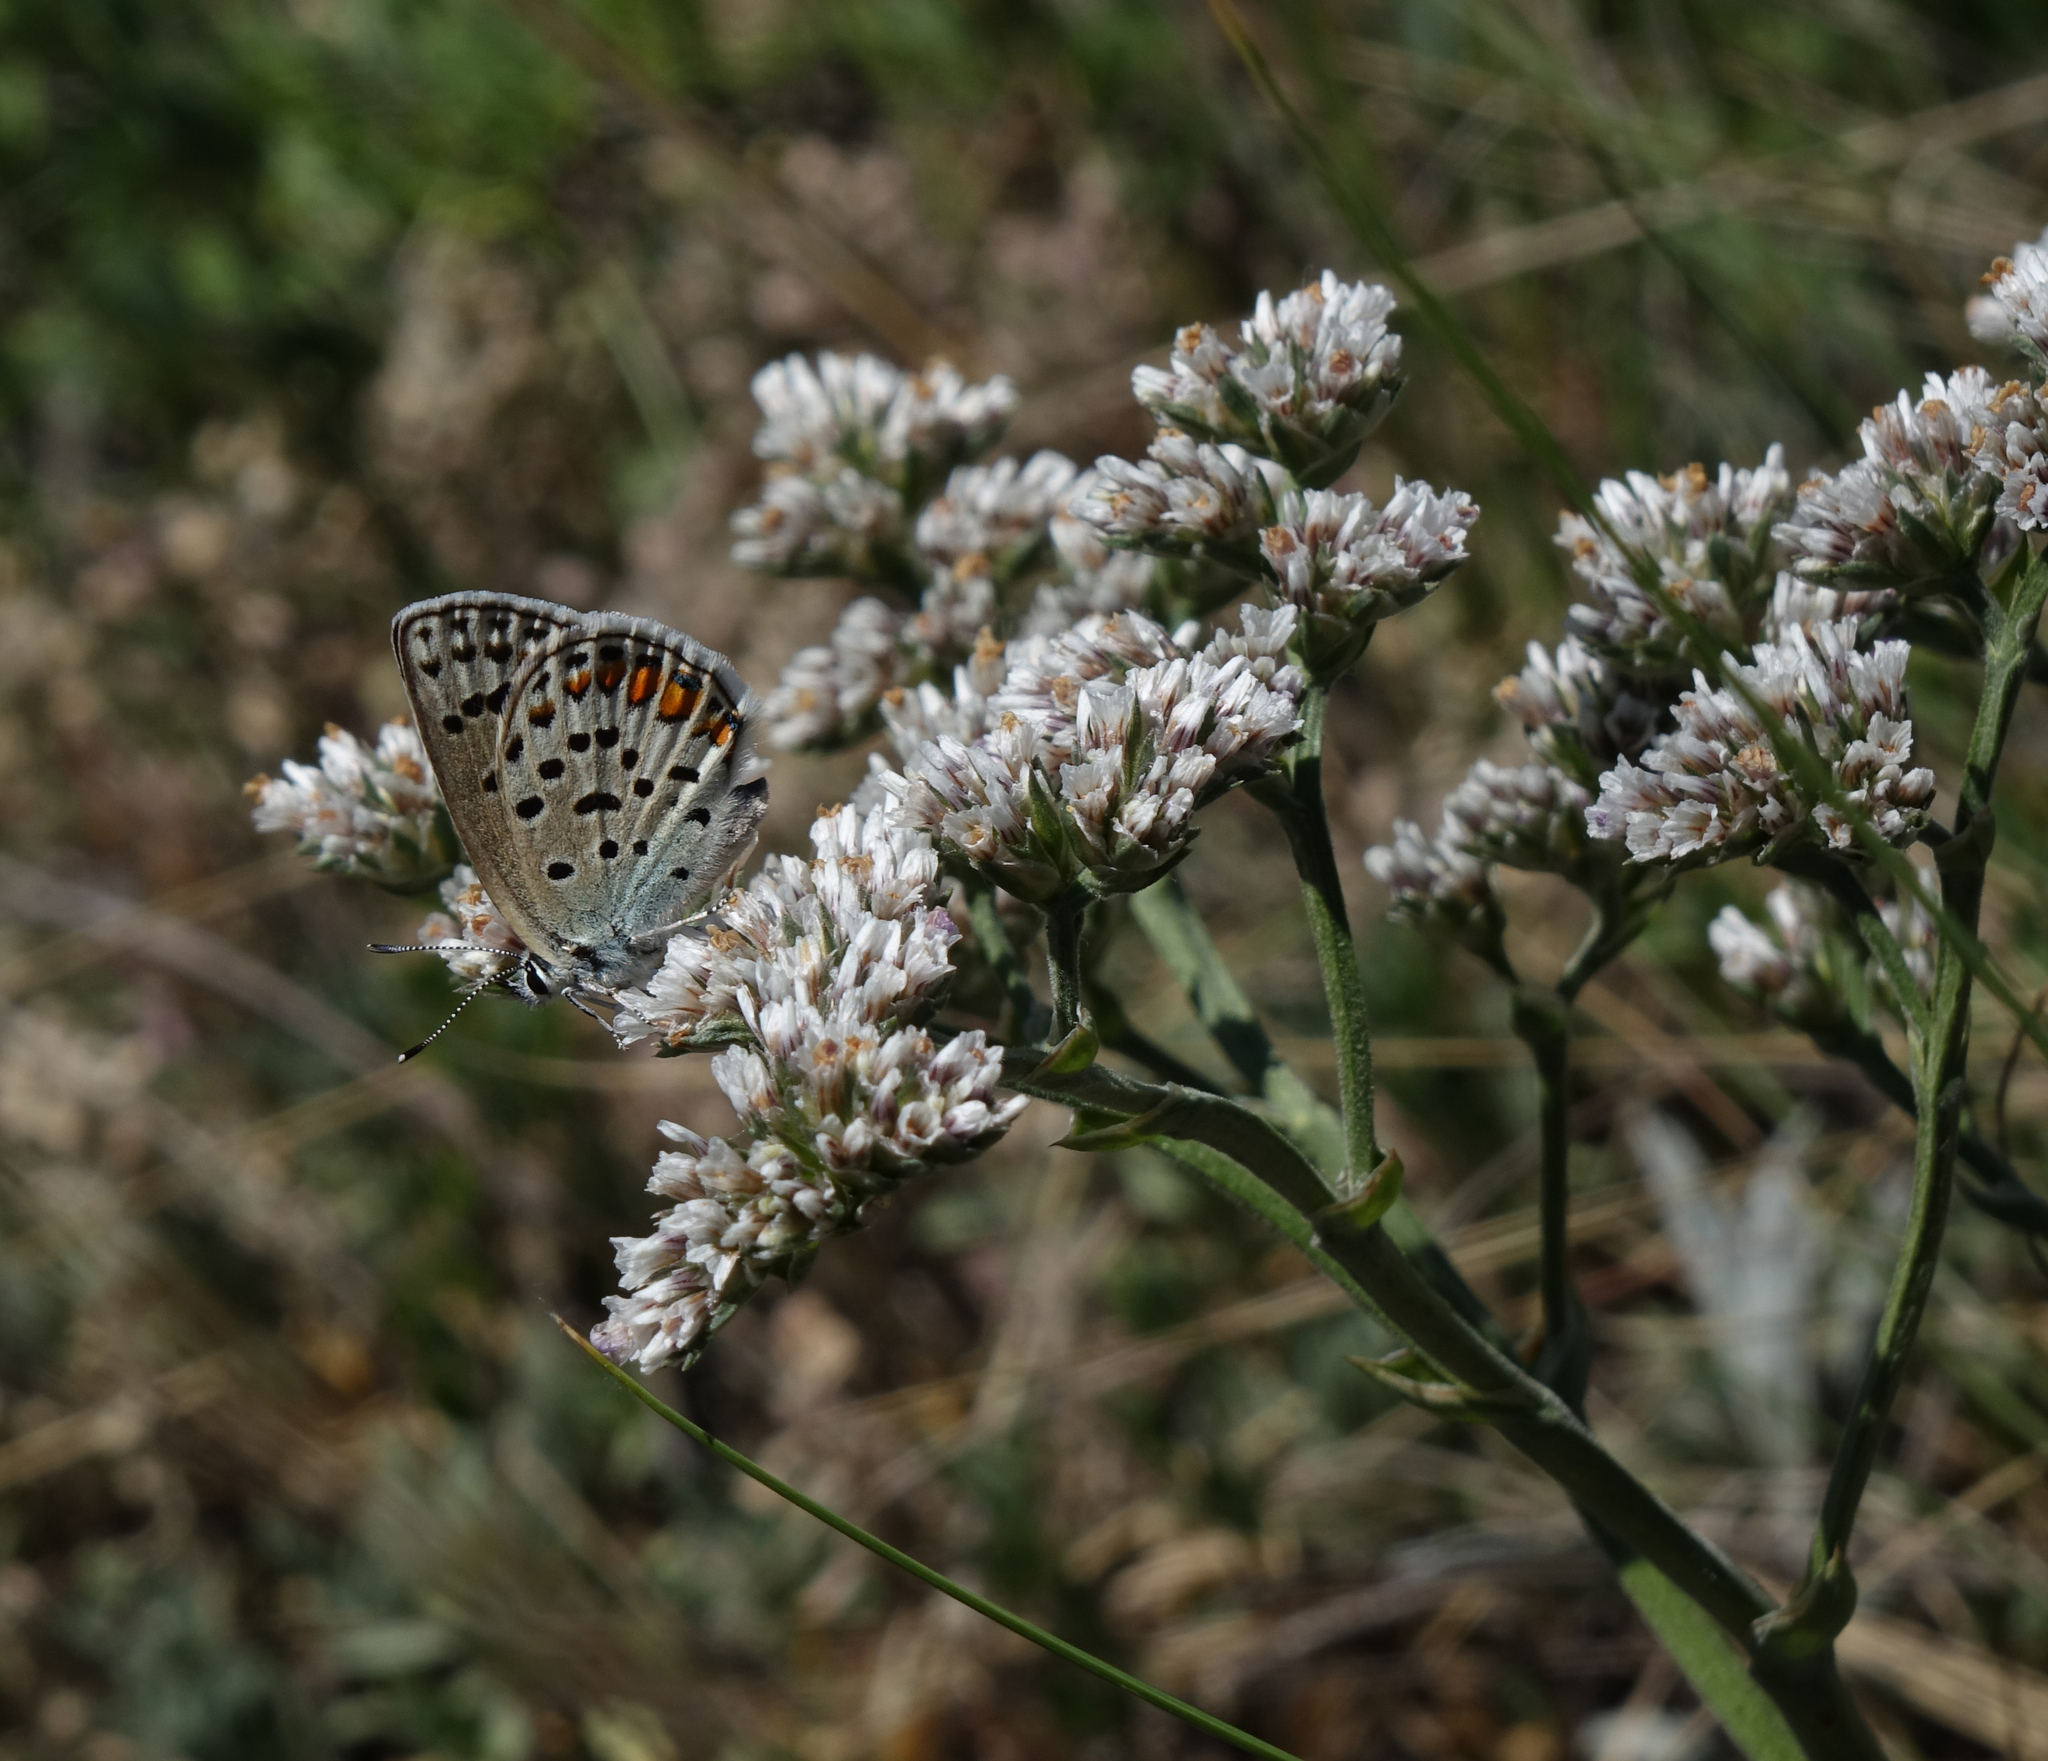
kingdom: Animalia
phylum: Arthropoda
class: Insecta
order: Lepidoptera
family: Lycaenidae
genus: Glabroculus
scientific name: Glabroculus cyane
